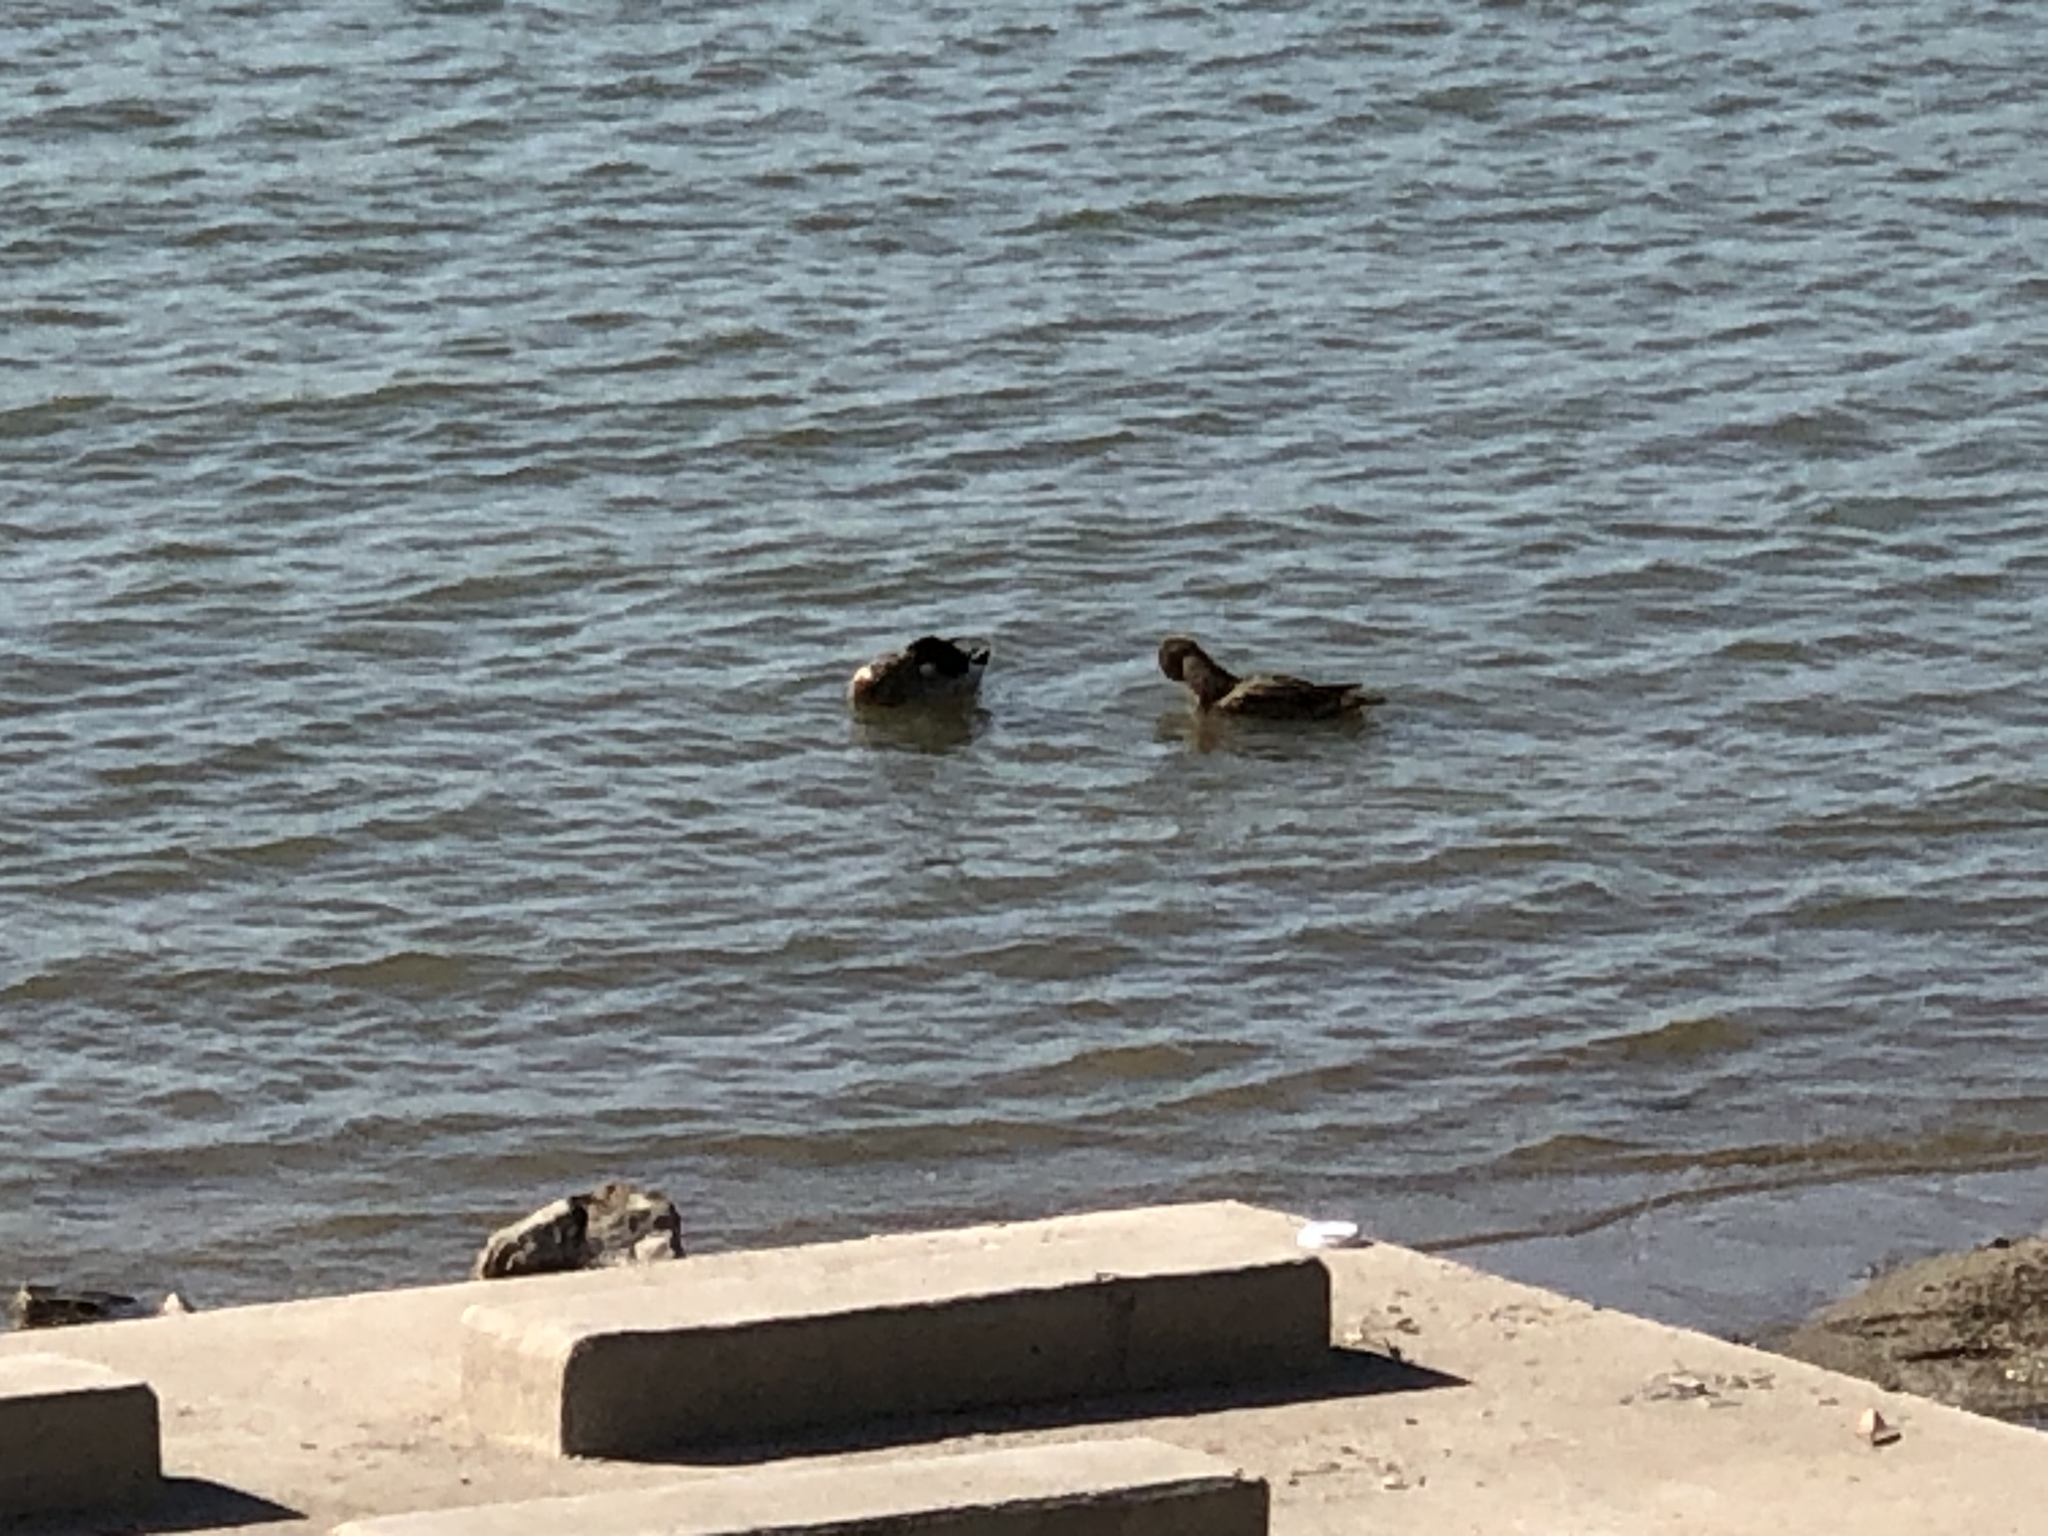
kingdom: Animalia
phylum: Chordata
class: Aves
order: Anseriformes
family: Anatidae
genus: Anas
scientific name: Anas platyrhynchos
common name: Mallard
